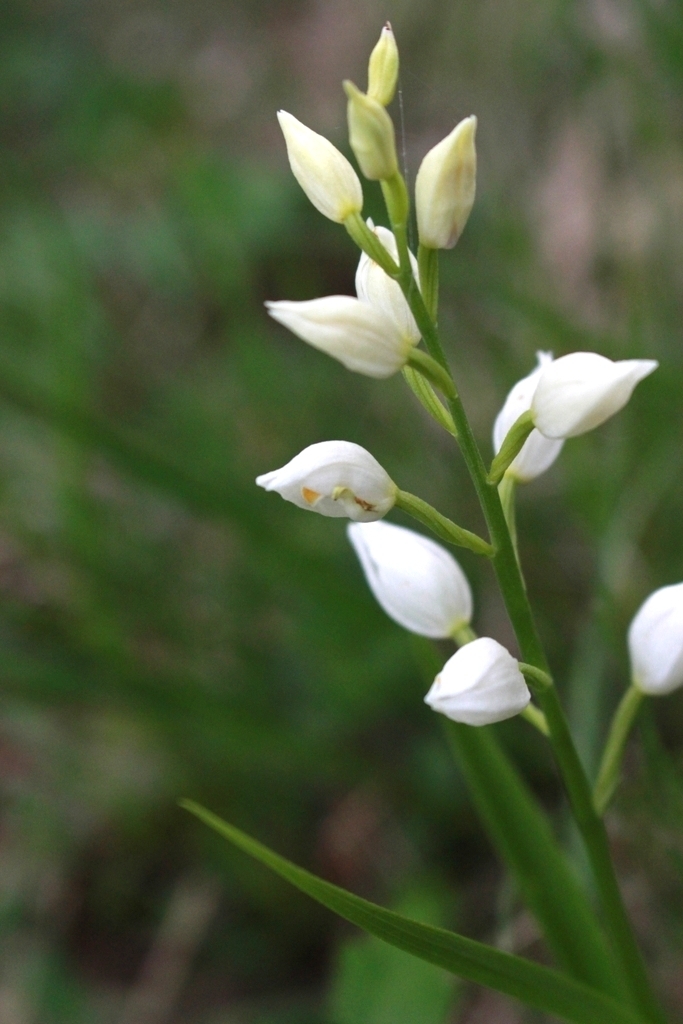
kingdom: Plantae
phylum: Tracheophyta
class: Liliopsida
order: Asparagales
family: Orchidaceae
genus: Cephalanthera
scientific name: Cephalanthera longifolia
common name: Narrow-leaved helleborine
